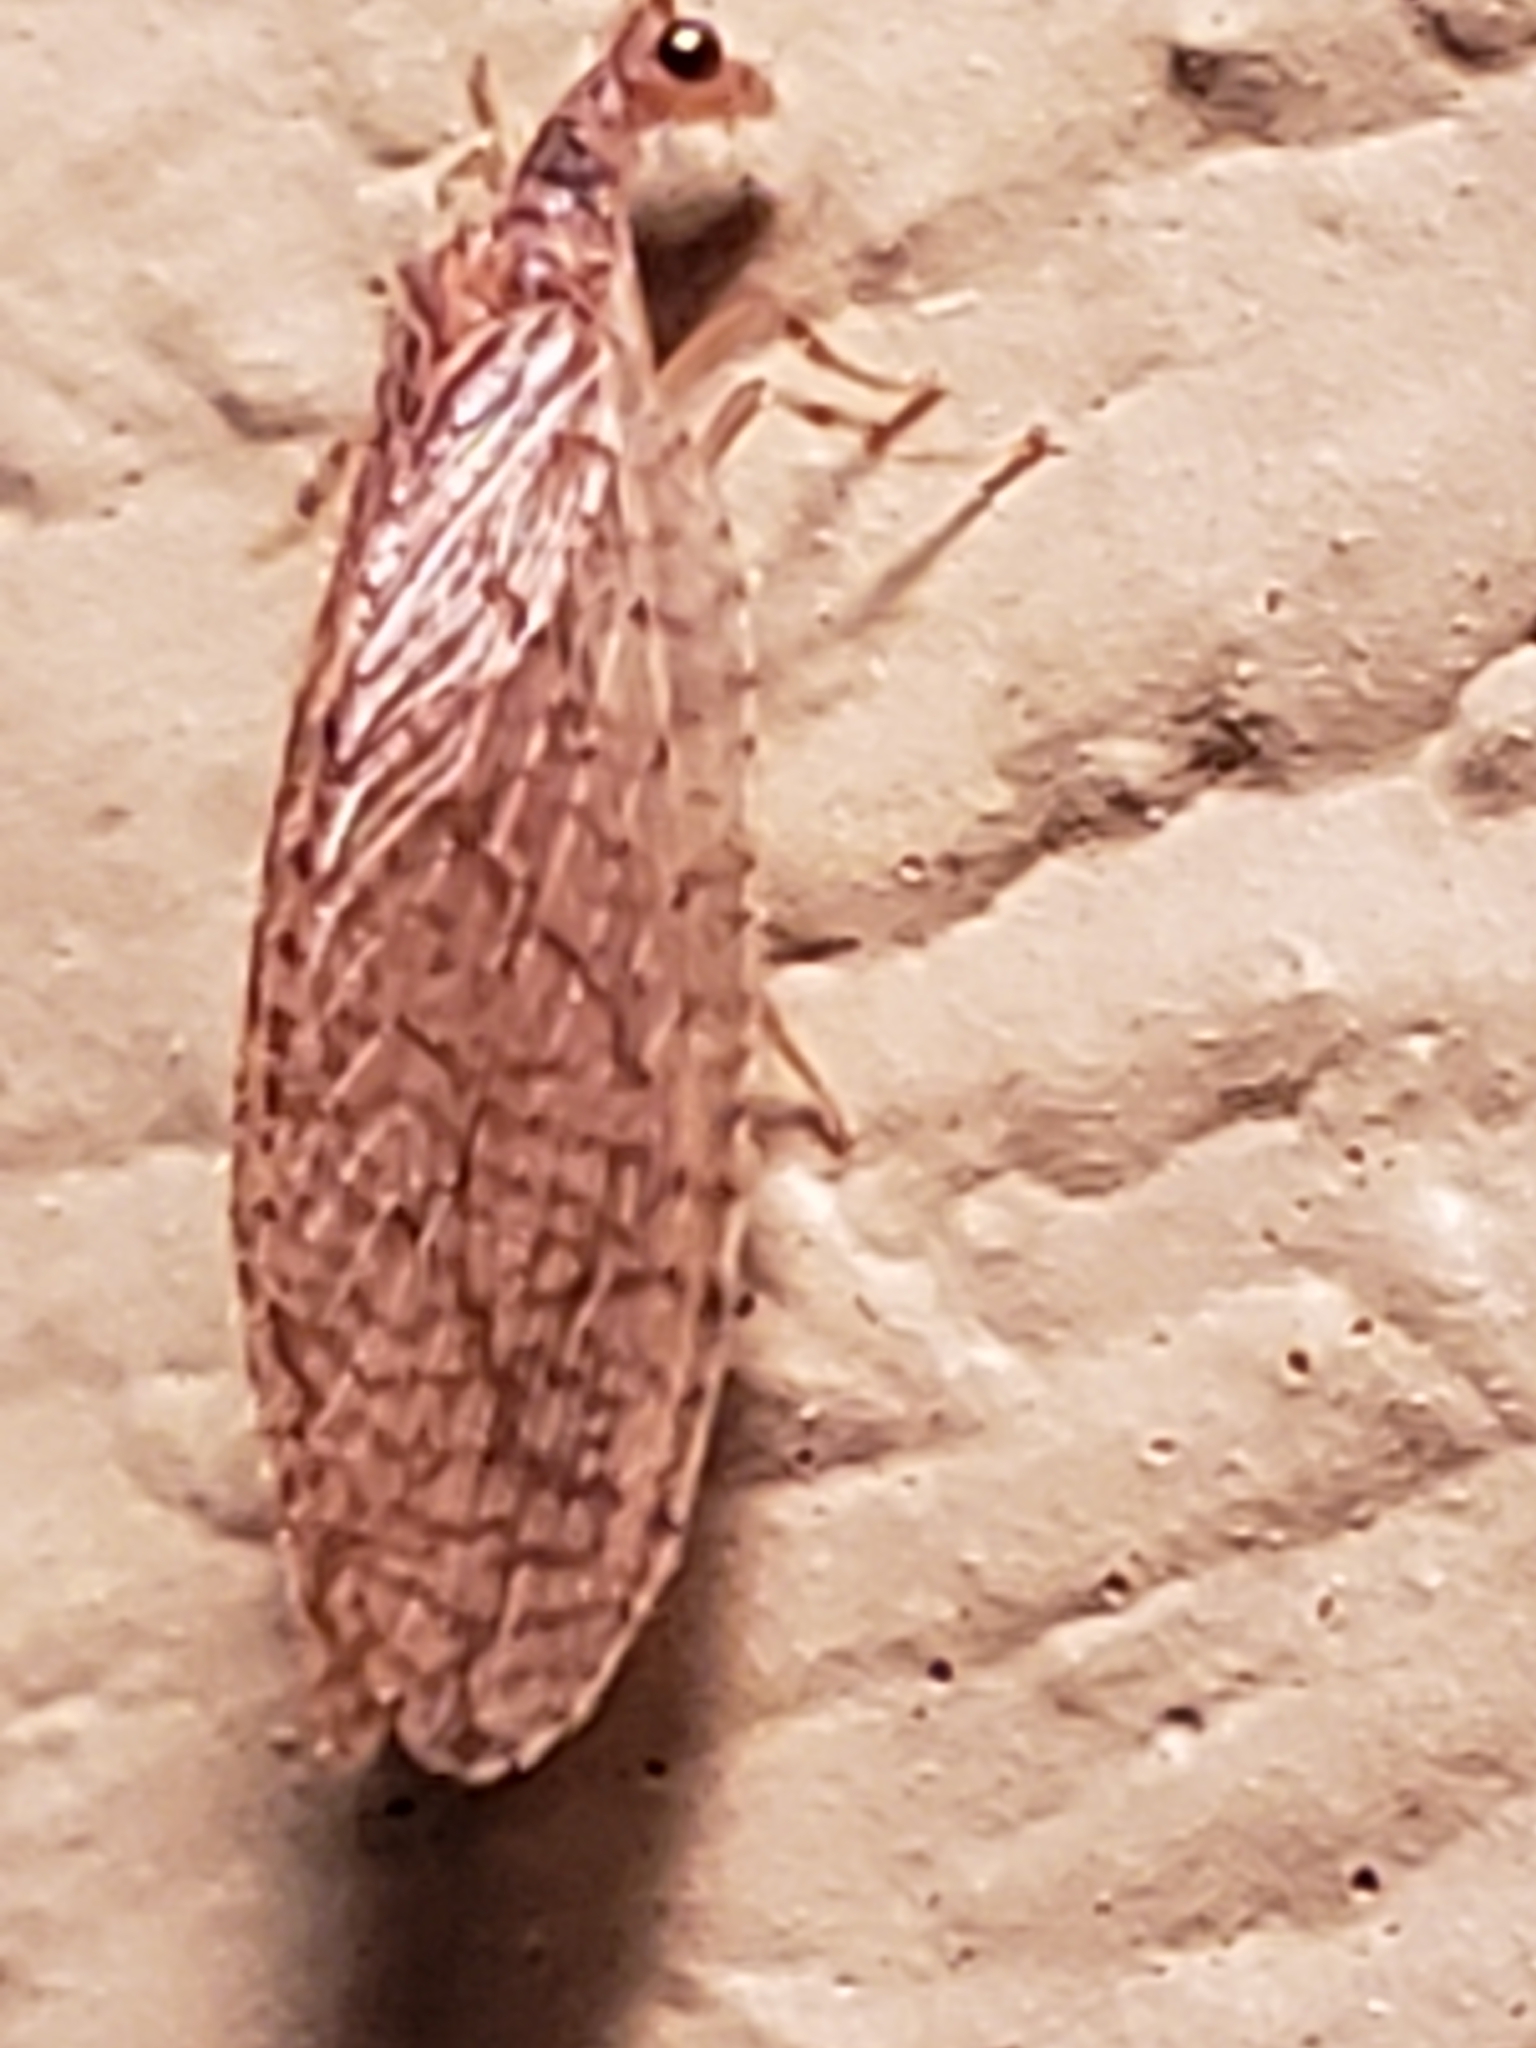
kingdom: Animalia
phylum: Arthropoda
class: Insecta
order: Neuroptera
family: Hemerobiidae
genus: Micromus
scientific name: Micromus posticus
